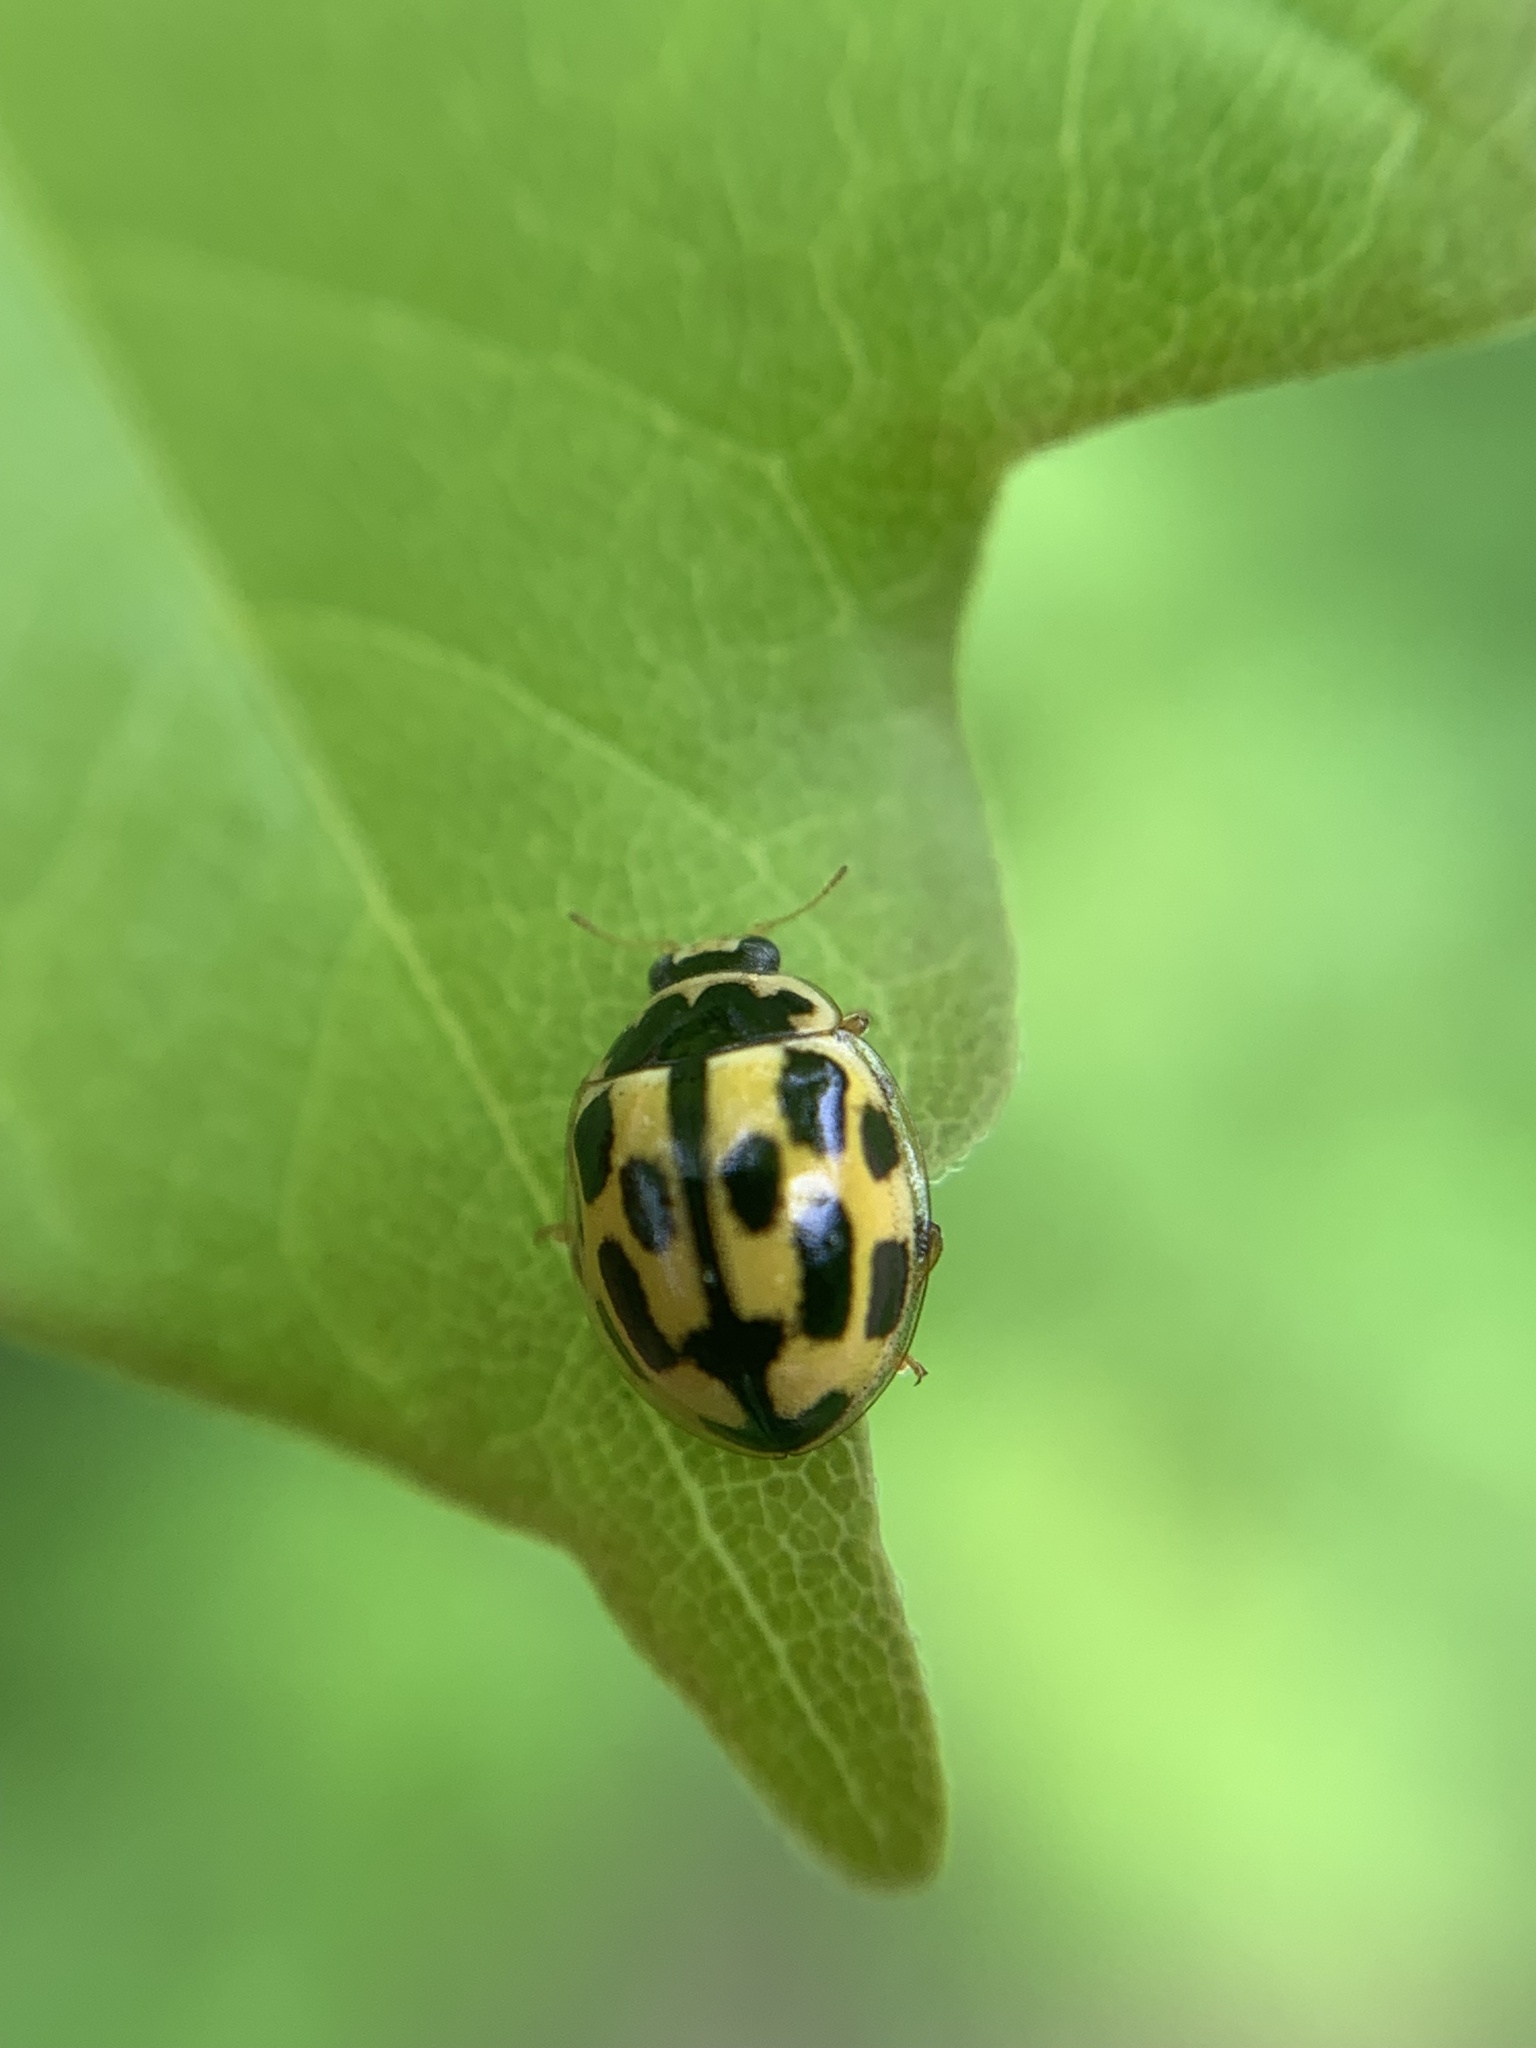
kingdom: Animalia
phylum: Arthropoda
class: Insecta
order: Coleoptera
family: Coccinellidae
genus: Propylaea
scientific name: Propylaea quatuordecimpunctata
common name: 14-spotted ladybird beetle
